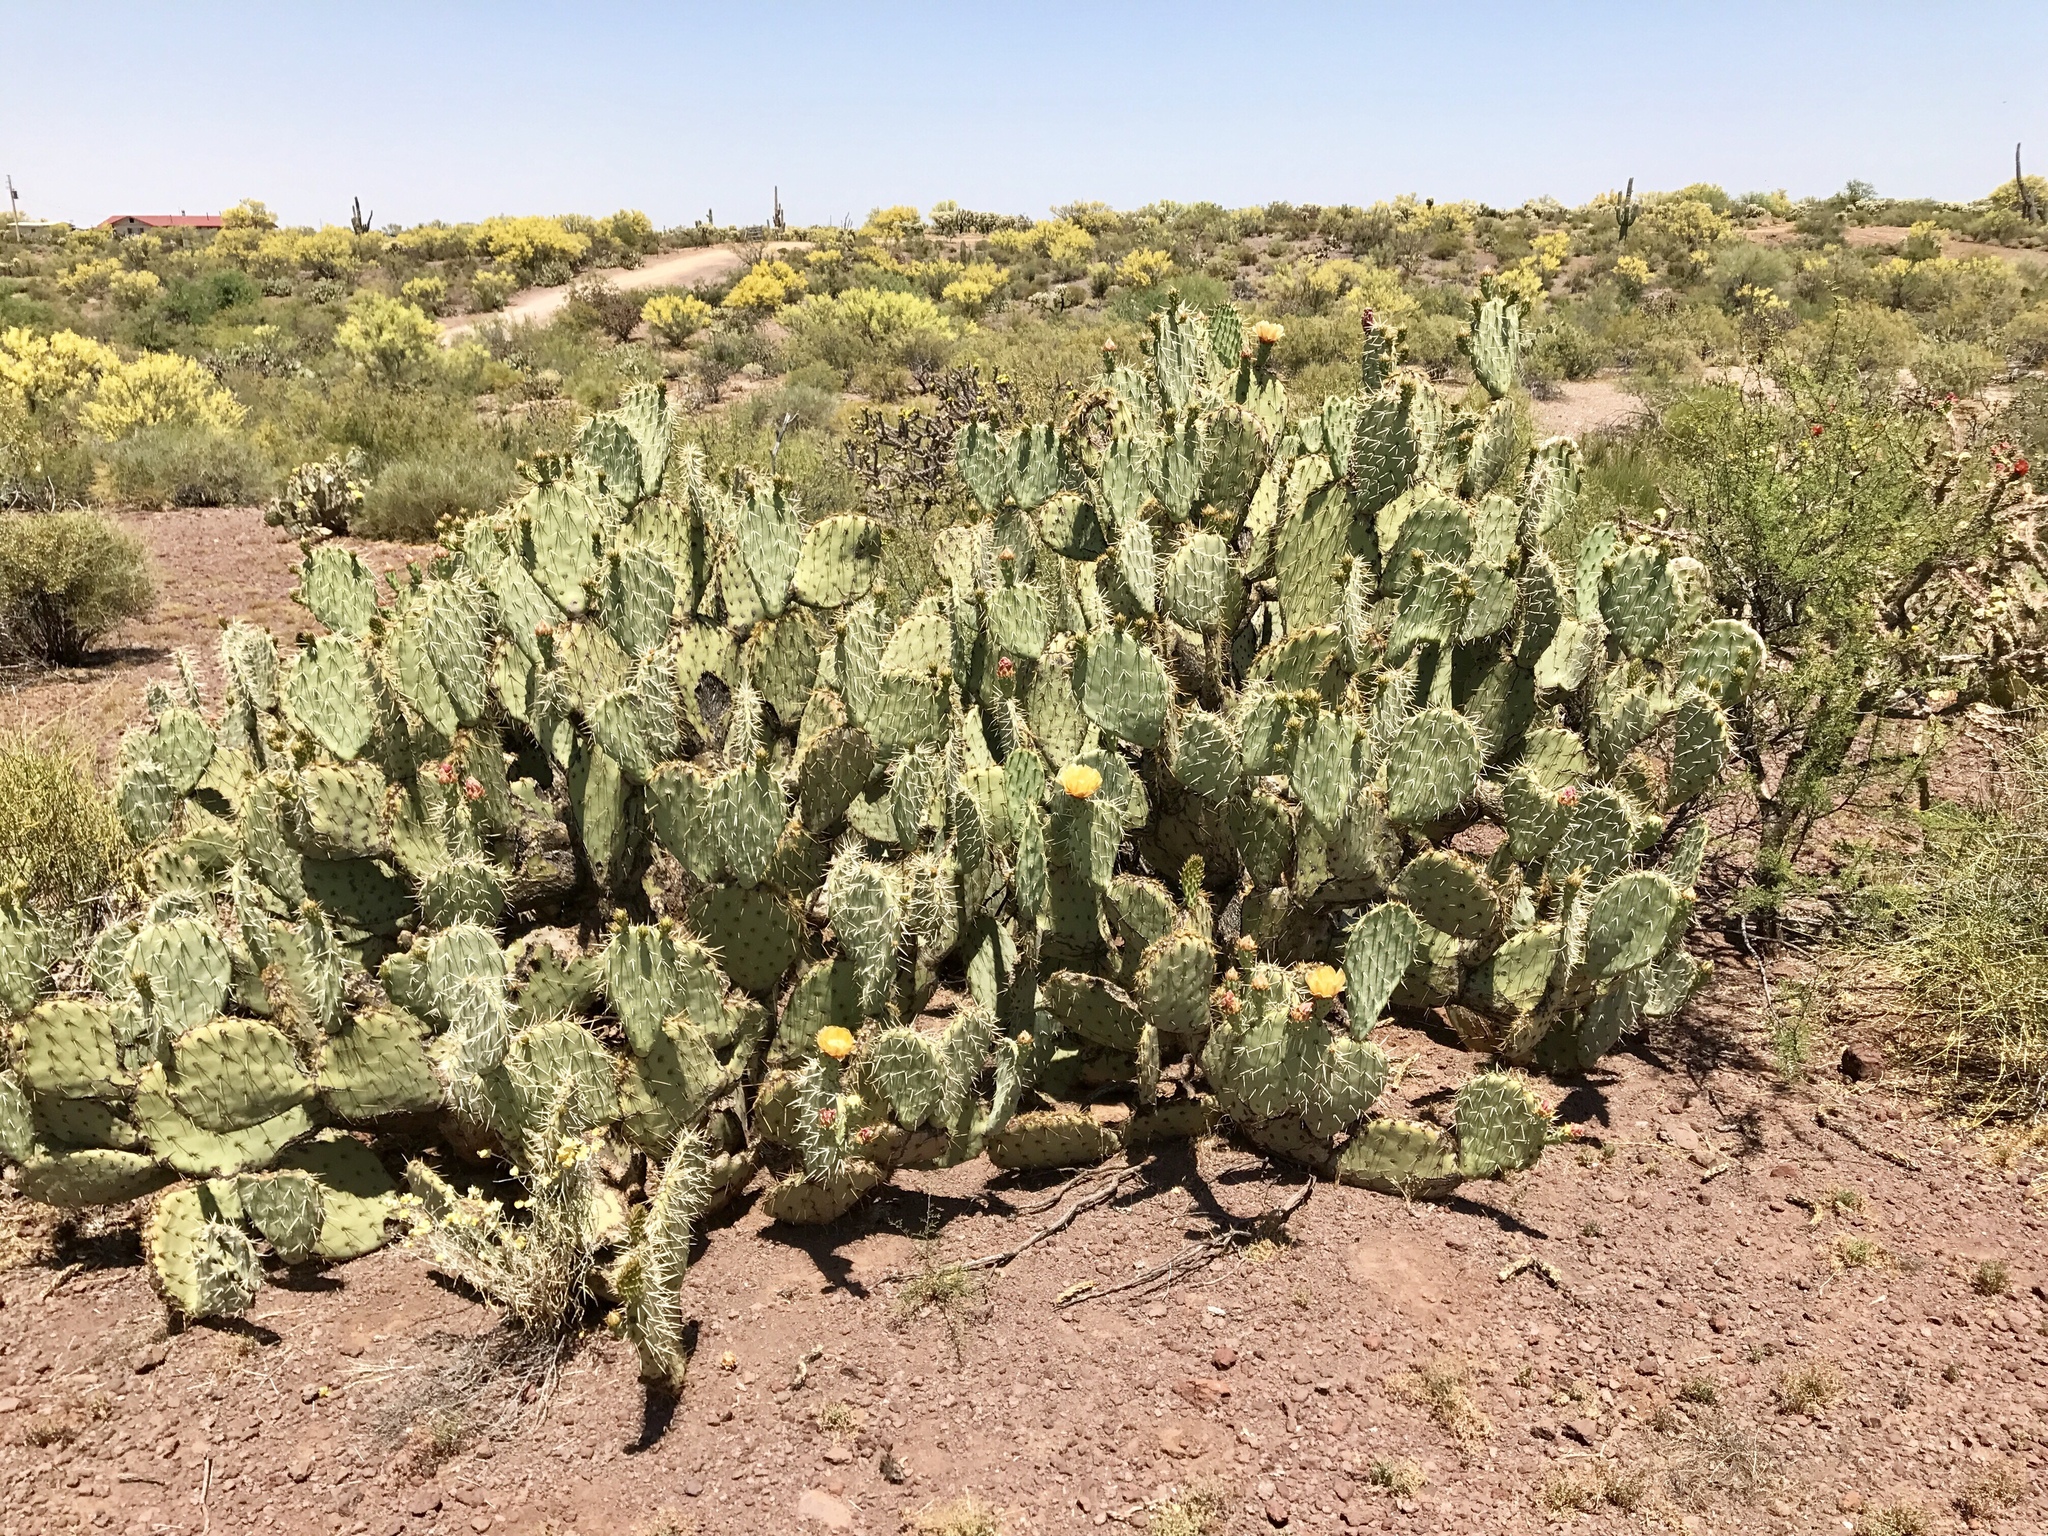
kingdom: Plantae
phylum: Tracheophyta
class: Magnoliopsida
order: Caryophyllales
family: Cactaceae
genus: Opuntia
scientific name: Opuntia engelmannii
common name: Cactus-apple
